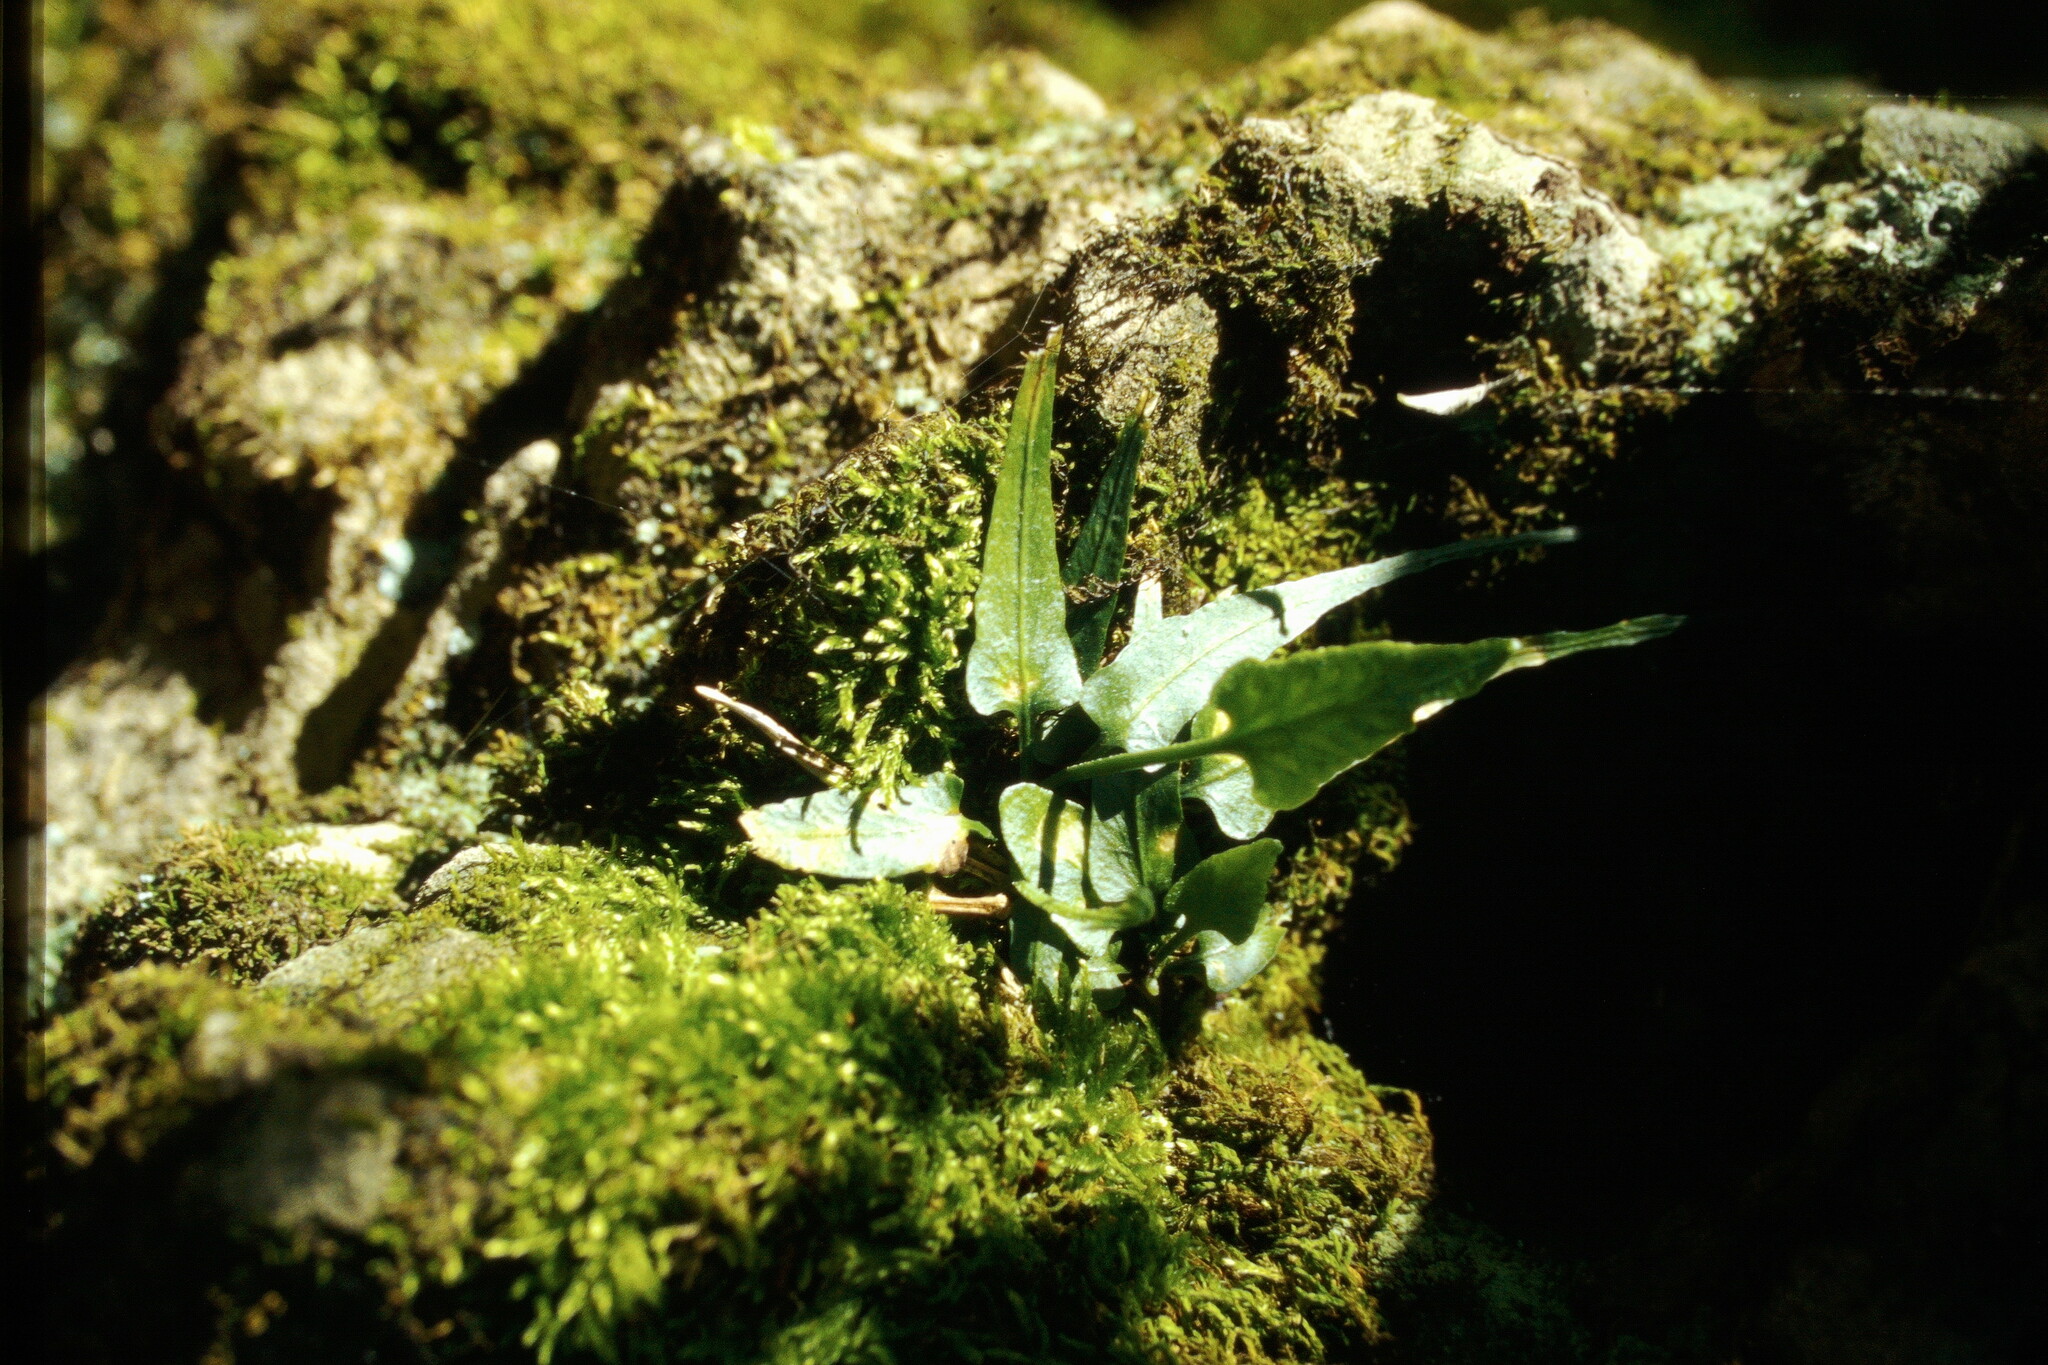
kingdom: Plantae
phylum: Tracheophyta
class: Polypodiopsida
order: Polypodiales
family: Aspleniaceae
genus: Asplenium
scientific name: Asplenium rhizophyllum
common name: Walking fern
